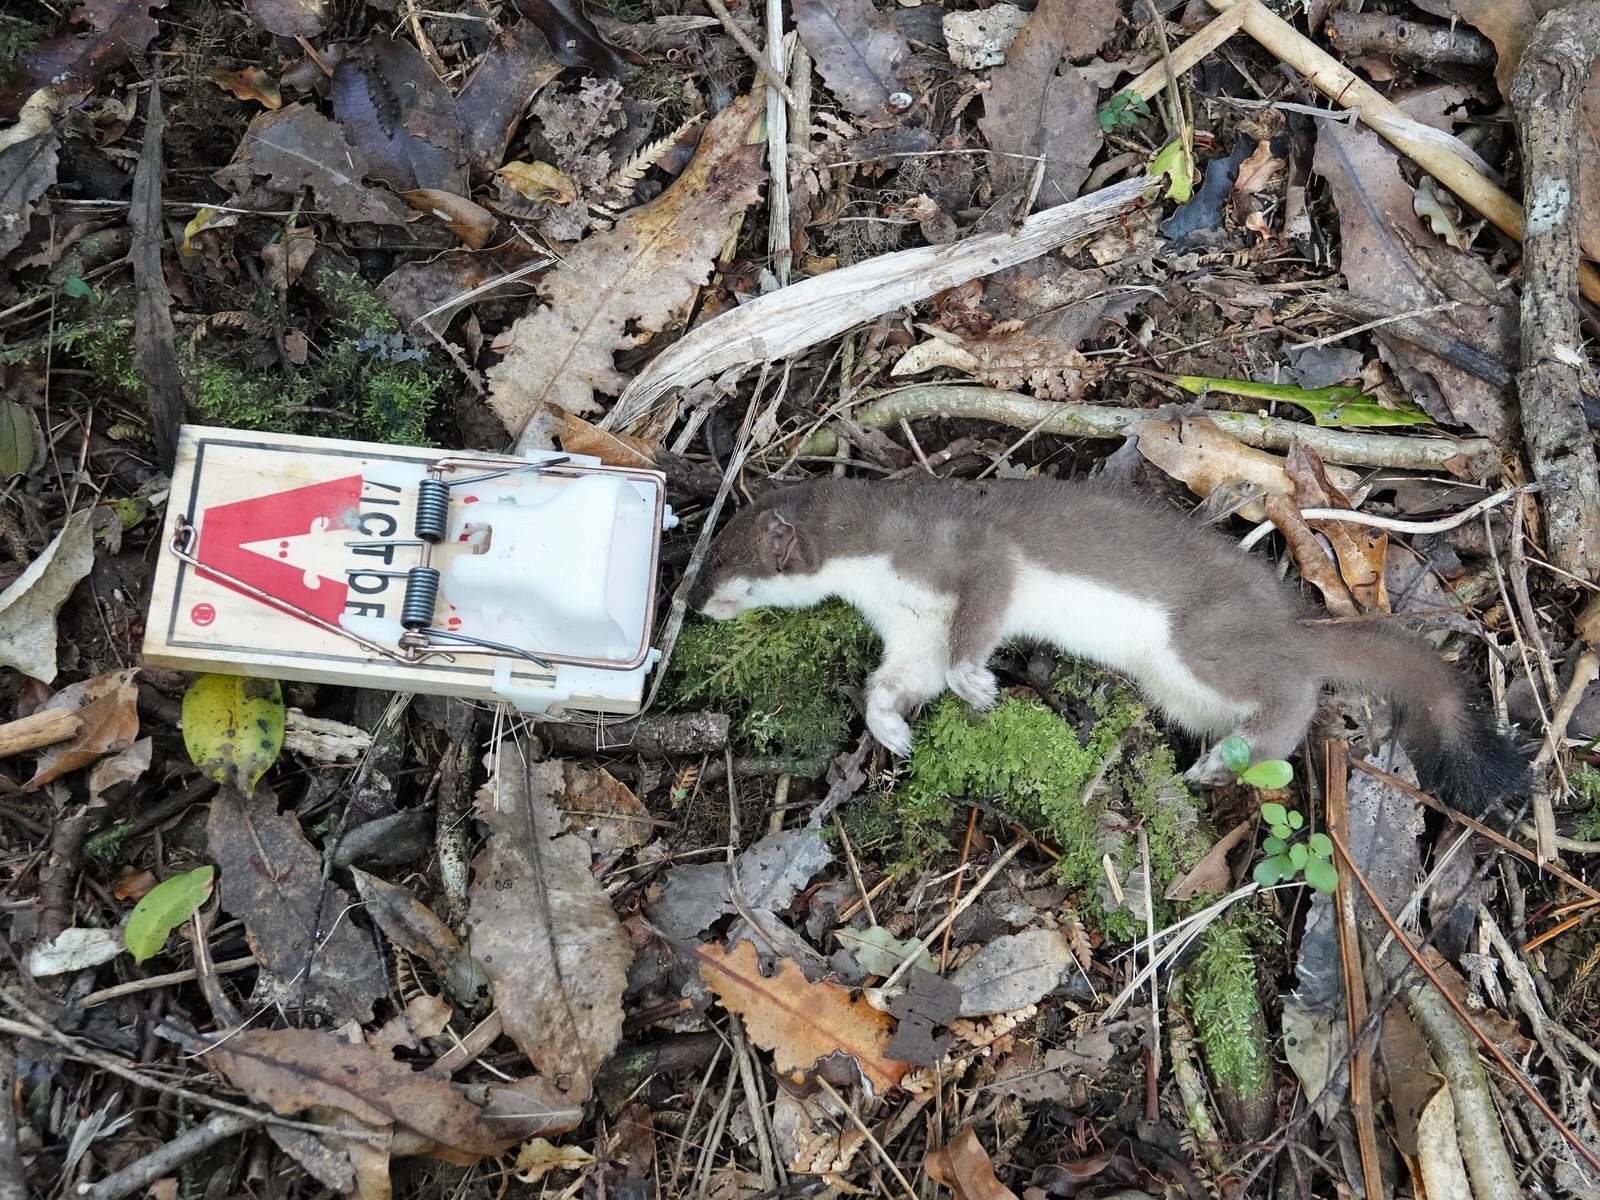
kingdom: Animalia
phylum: Chordata
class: Mammalia
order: Carnivora
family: Mustelidae
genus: Mustela
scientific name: Mustela erminea
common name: Stoat
